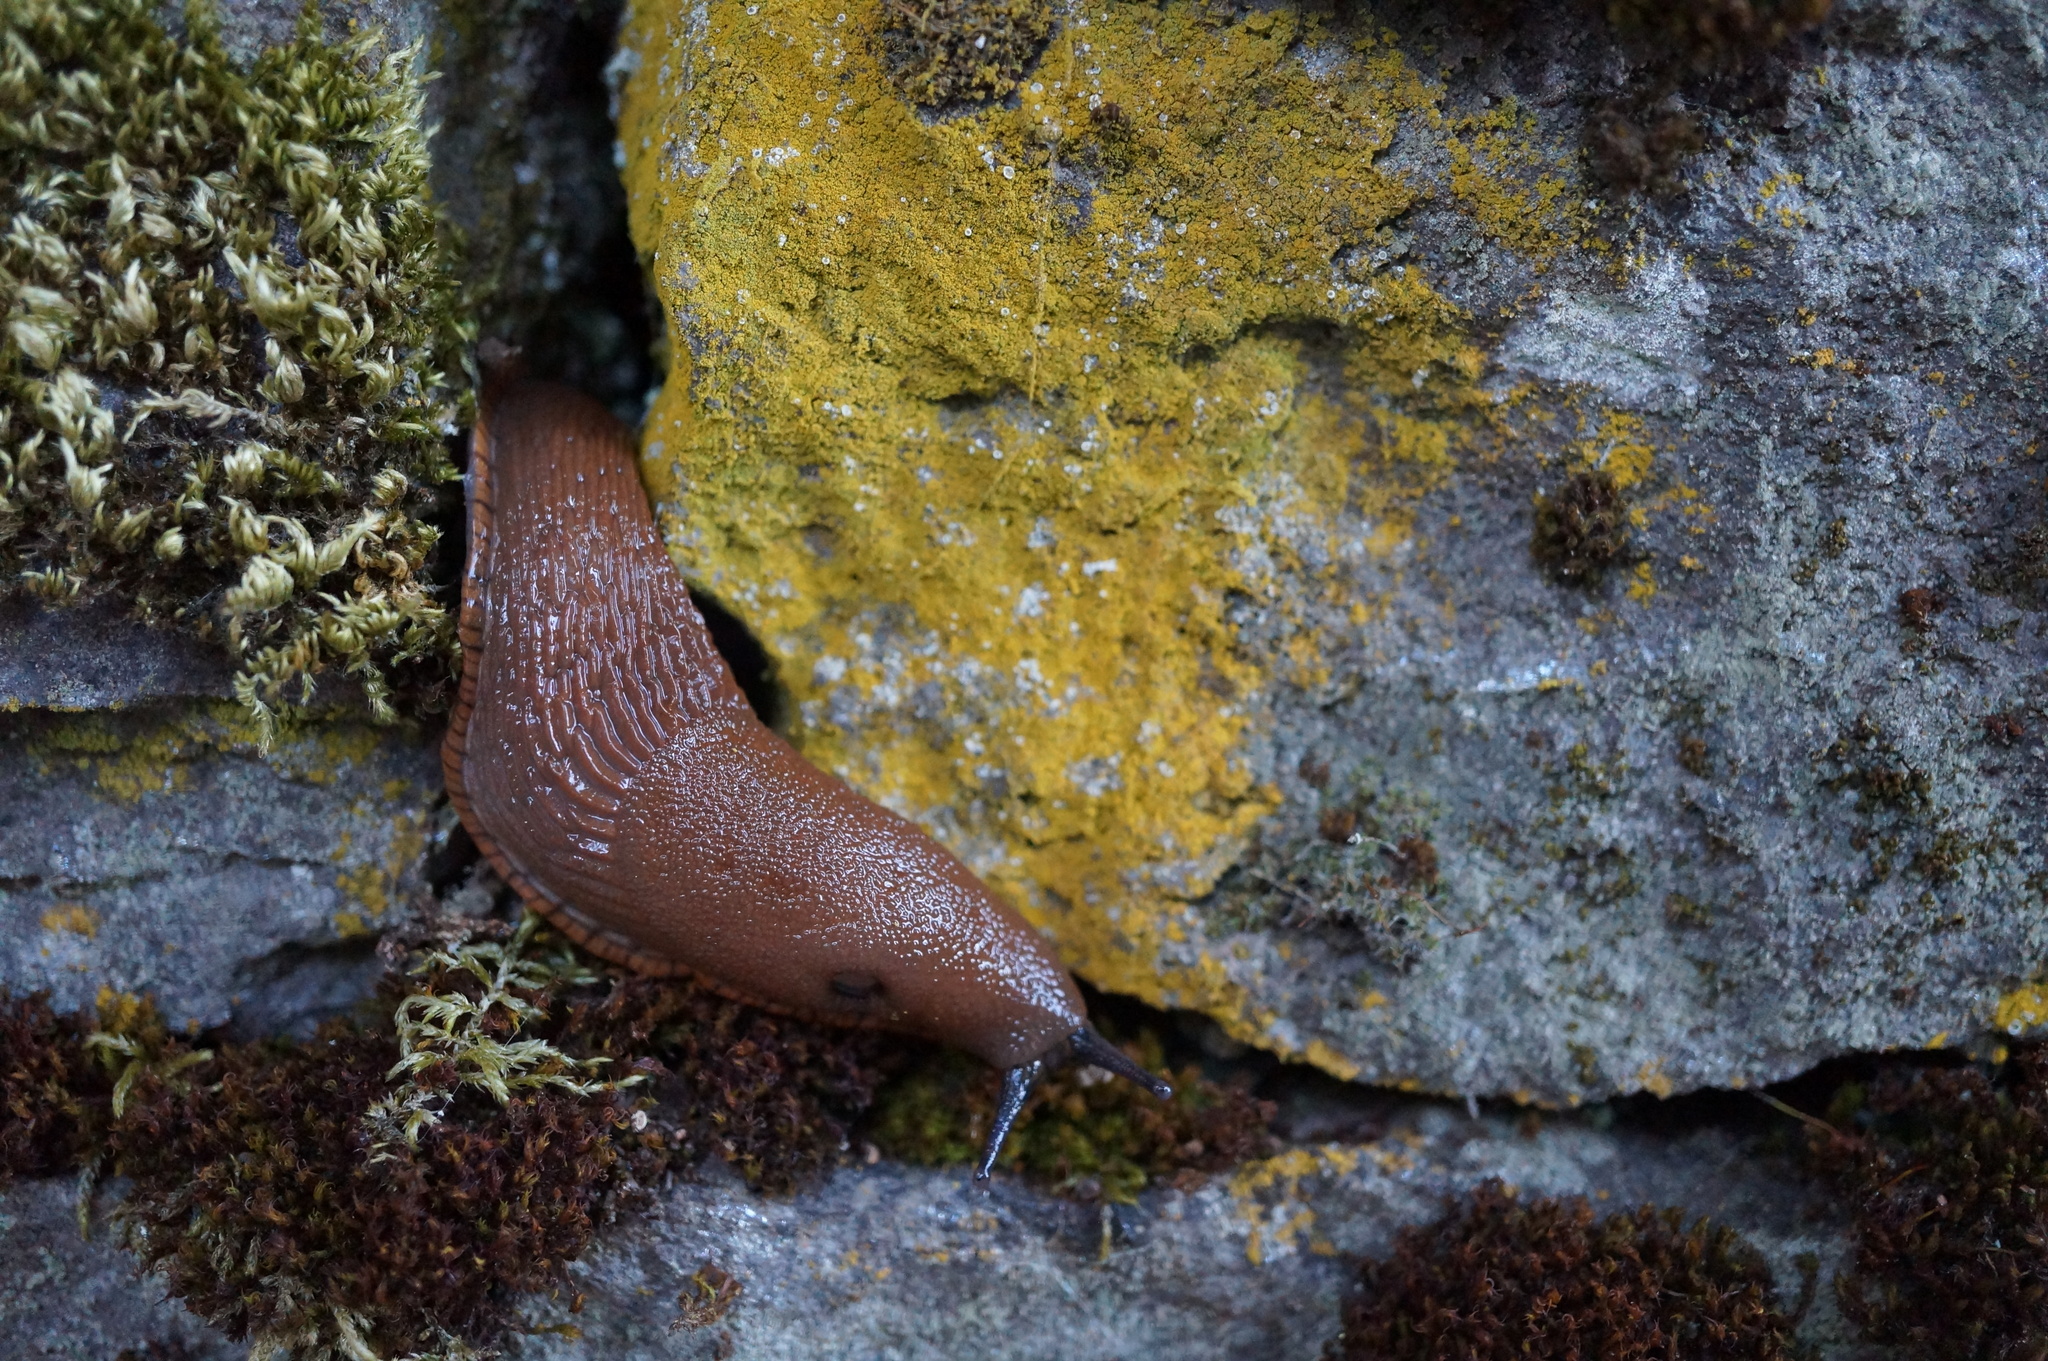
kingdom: Animalia
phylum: Mollusca
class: Gastropoda
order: Stylommatophora
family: Arionidae
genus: Arion
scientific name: Arion rufus
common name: Chocolate arion
